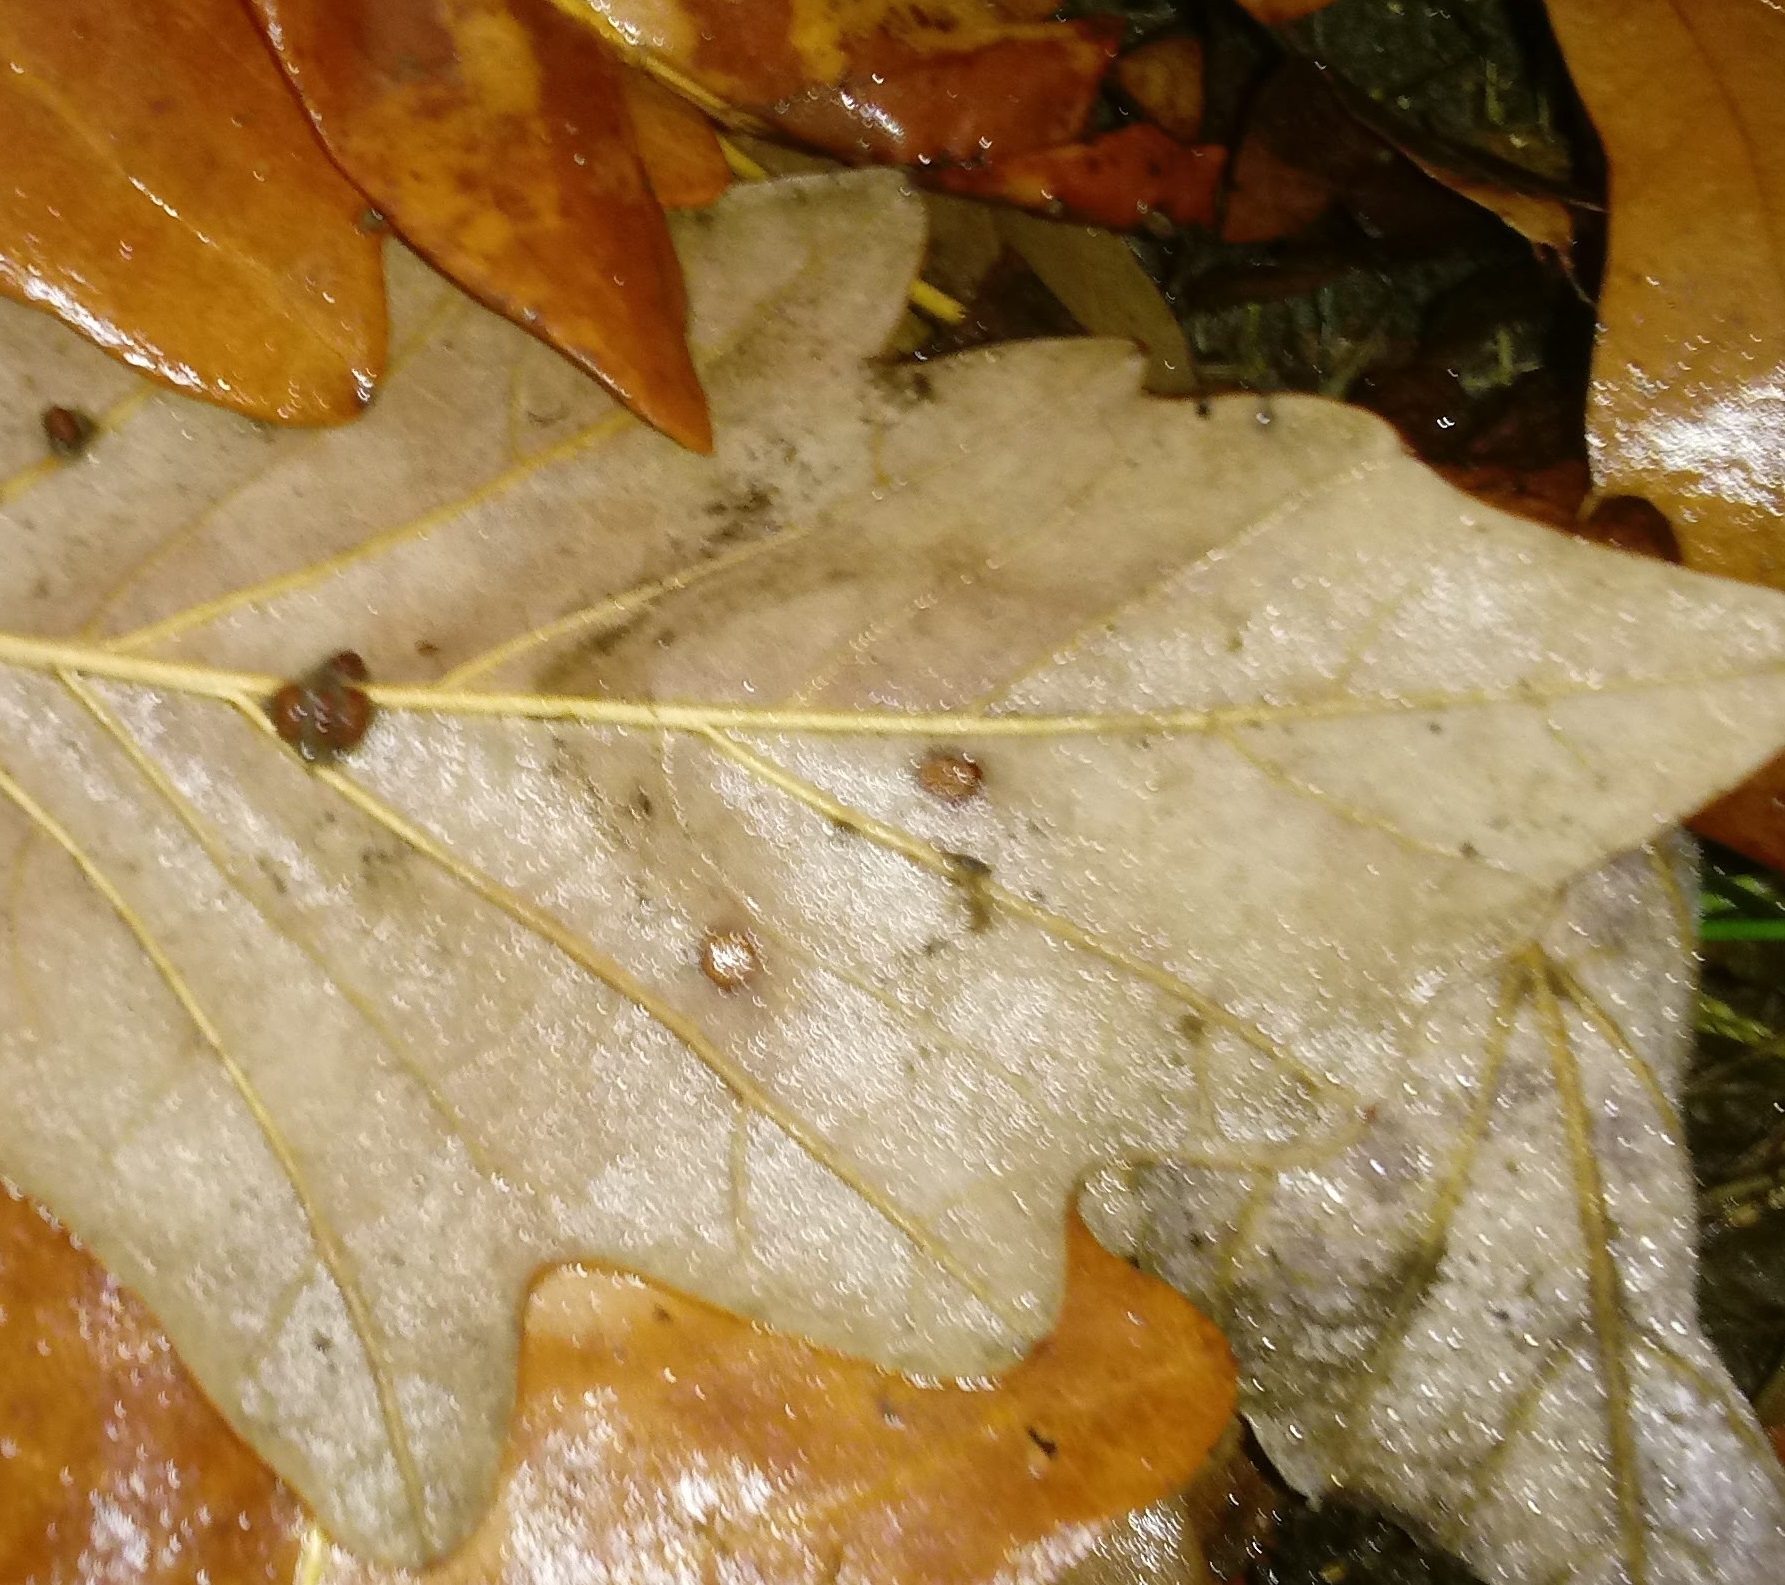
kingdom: Animalia
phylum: Arthropoda
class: Insecta
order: Hymenoptera
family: Cynipidae
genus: Andricus
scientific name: Andricus Druon ignotum
